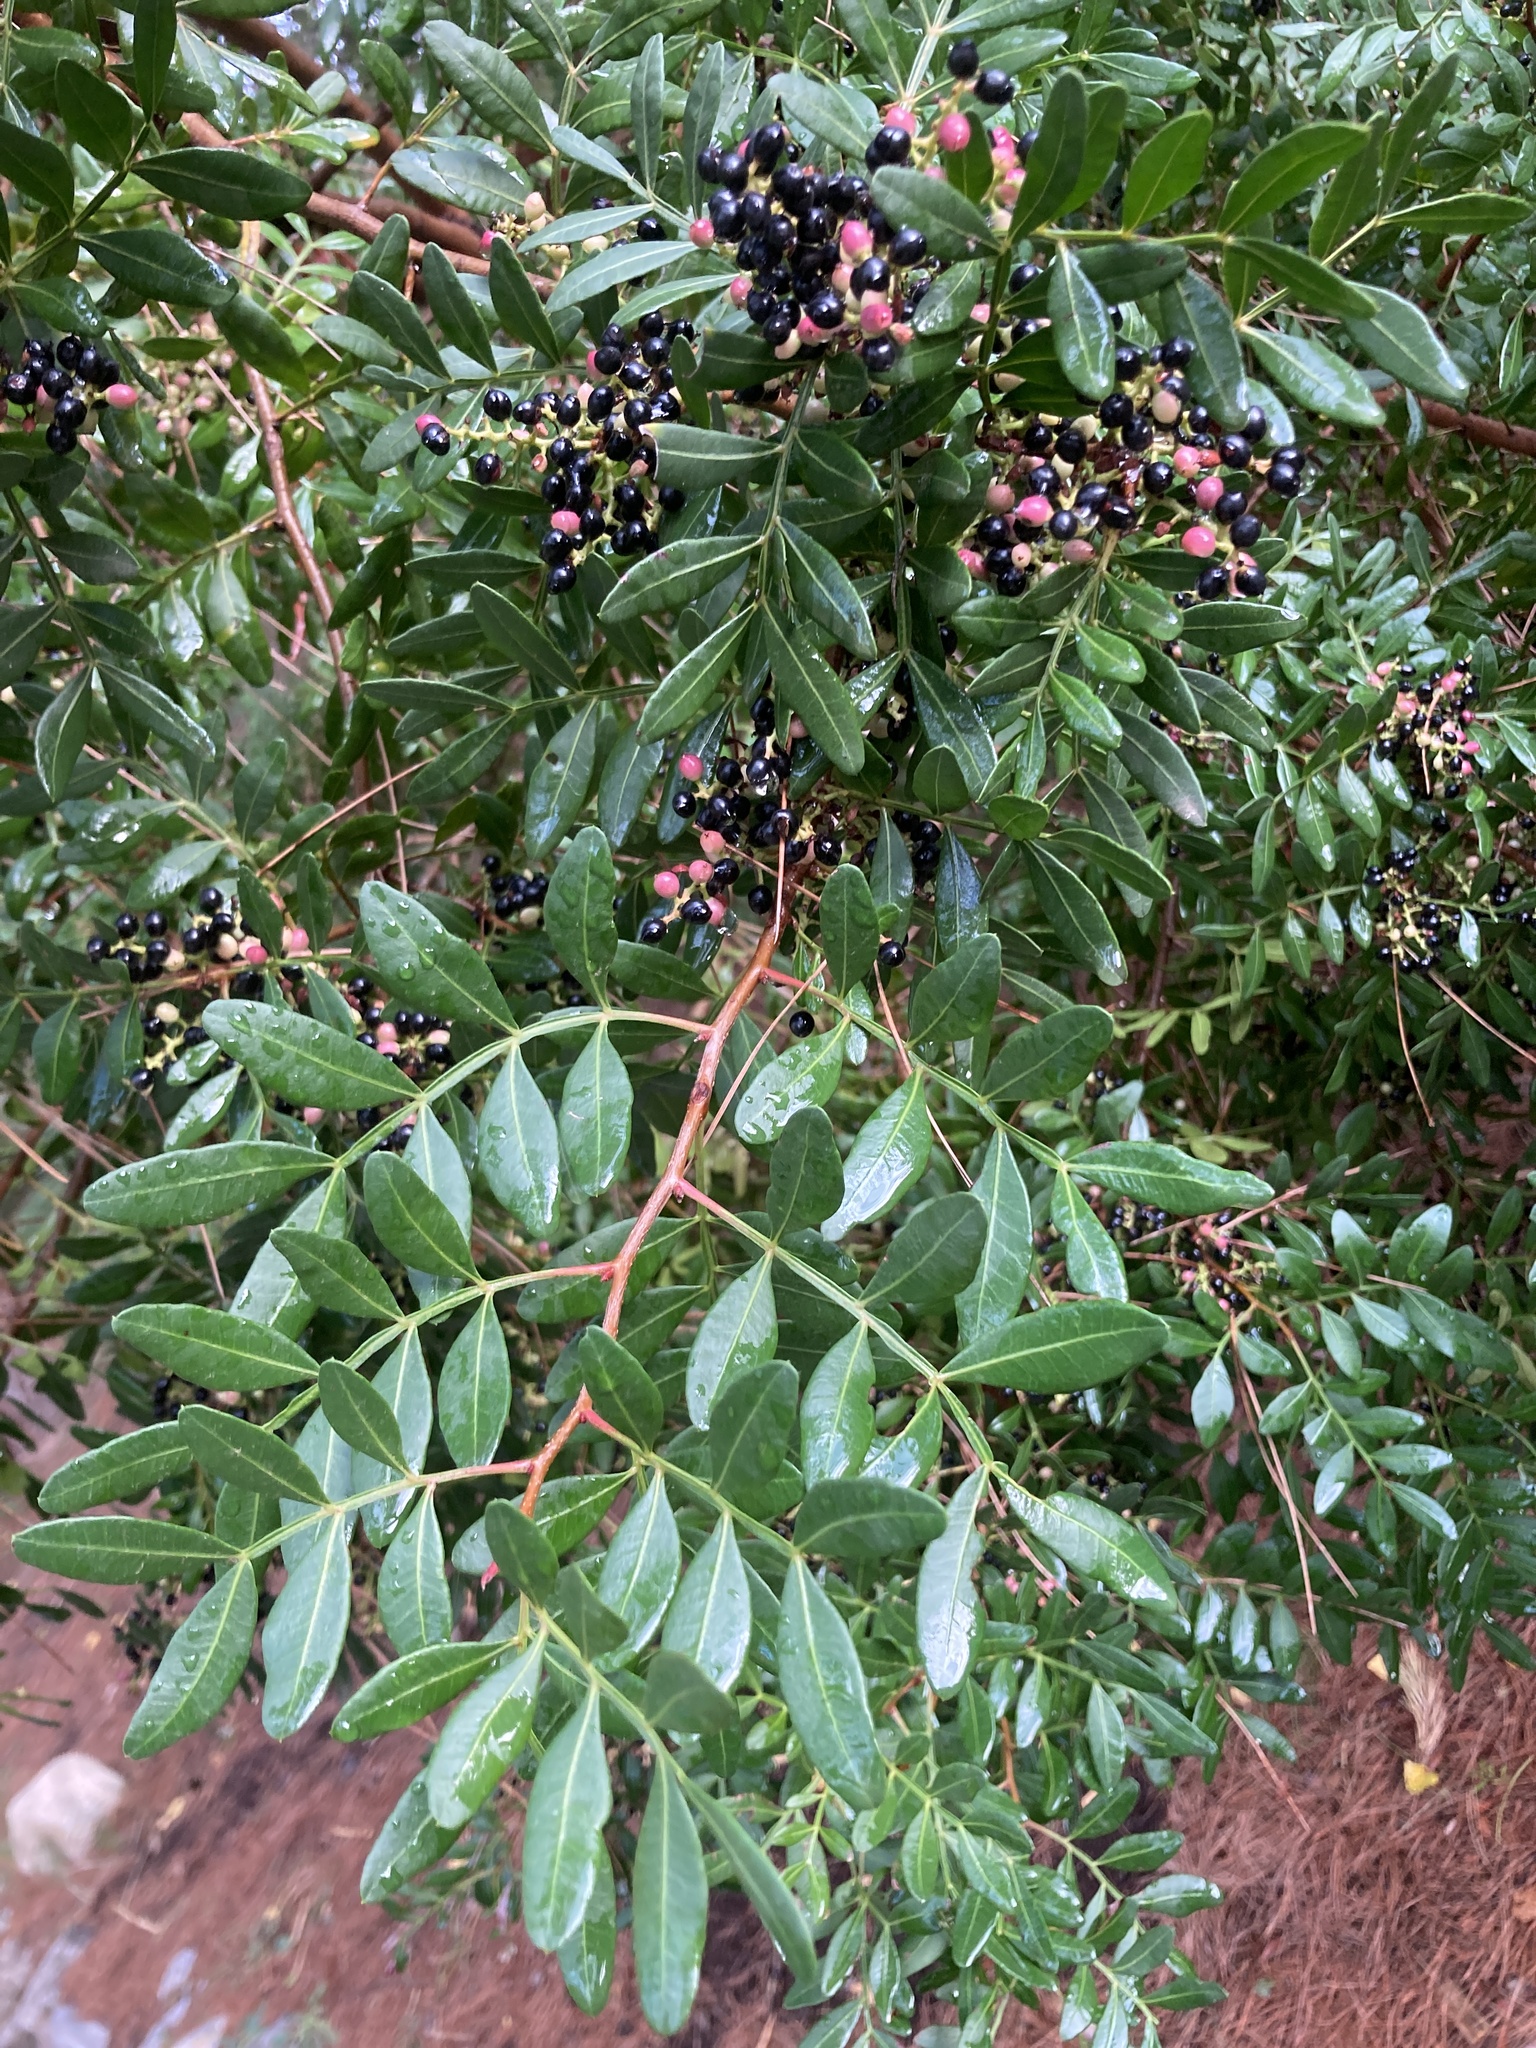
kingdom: Plantae
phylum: Tracheophyta
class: Magnoliopsida
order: Sapindales
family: Anacardiaceae
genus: Pistacia
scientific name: Pistacia lentiscus
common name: Lentisk
